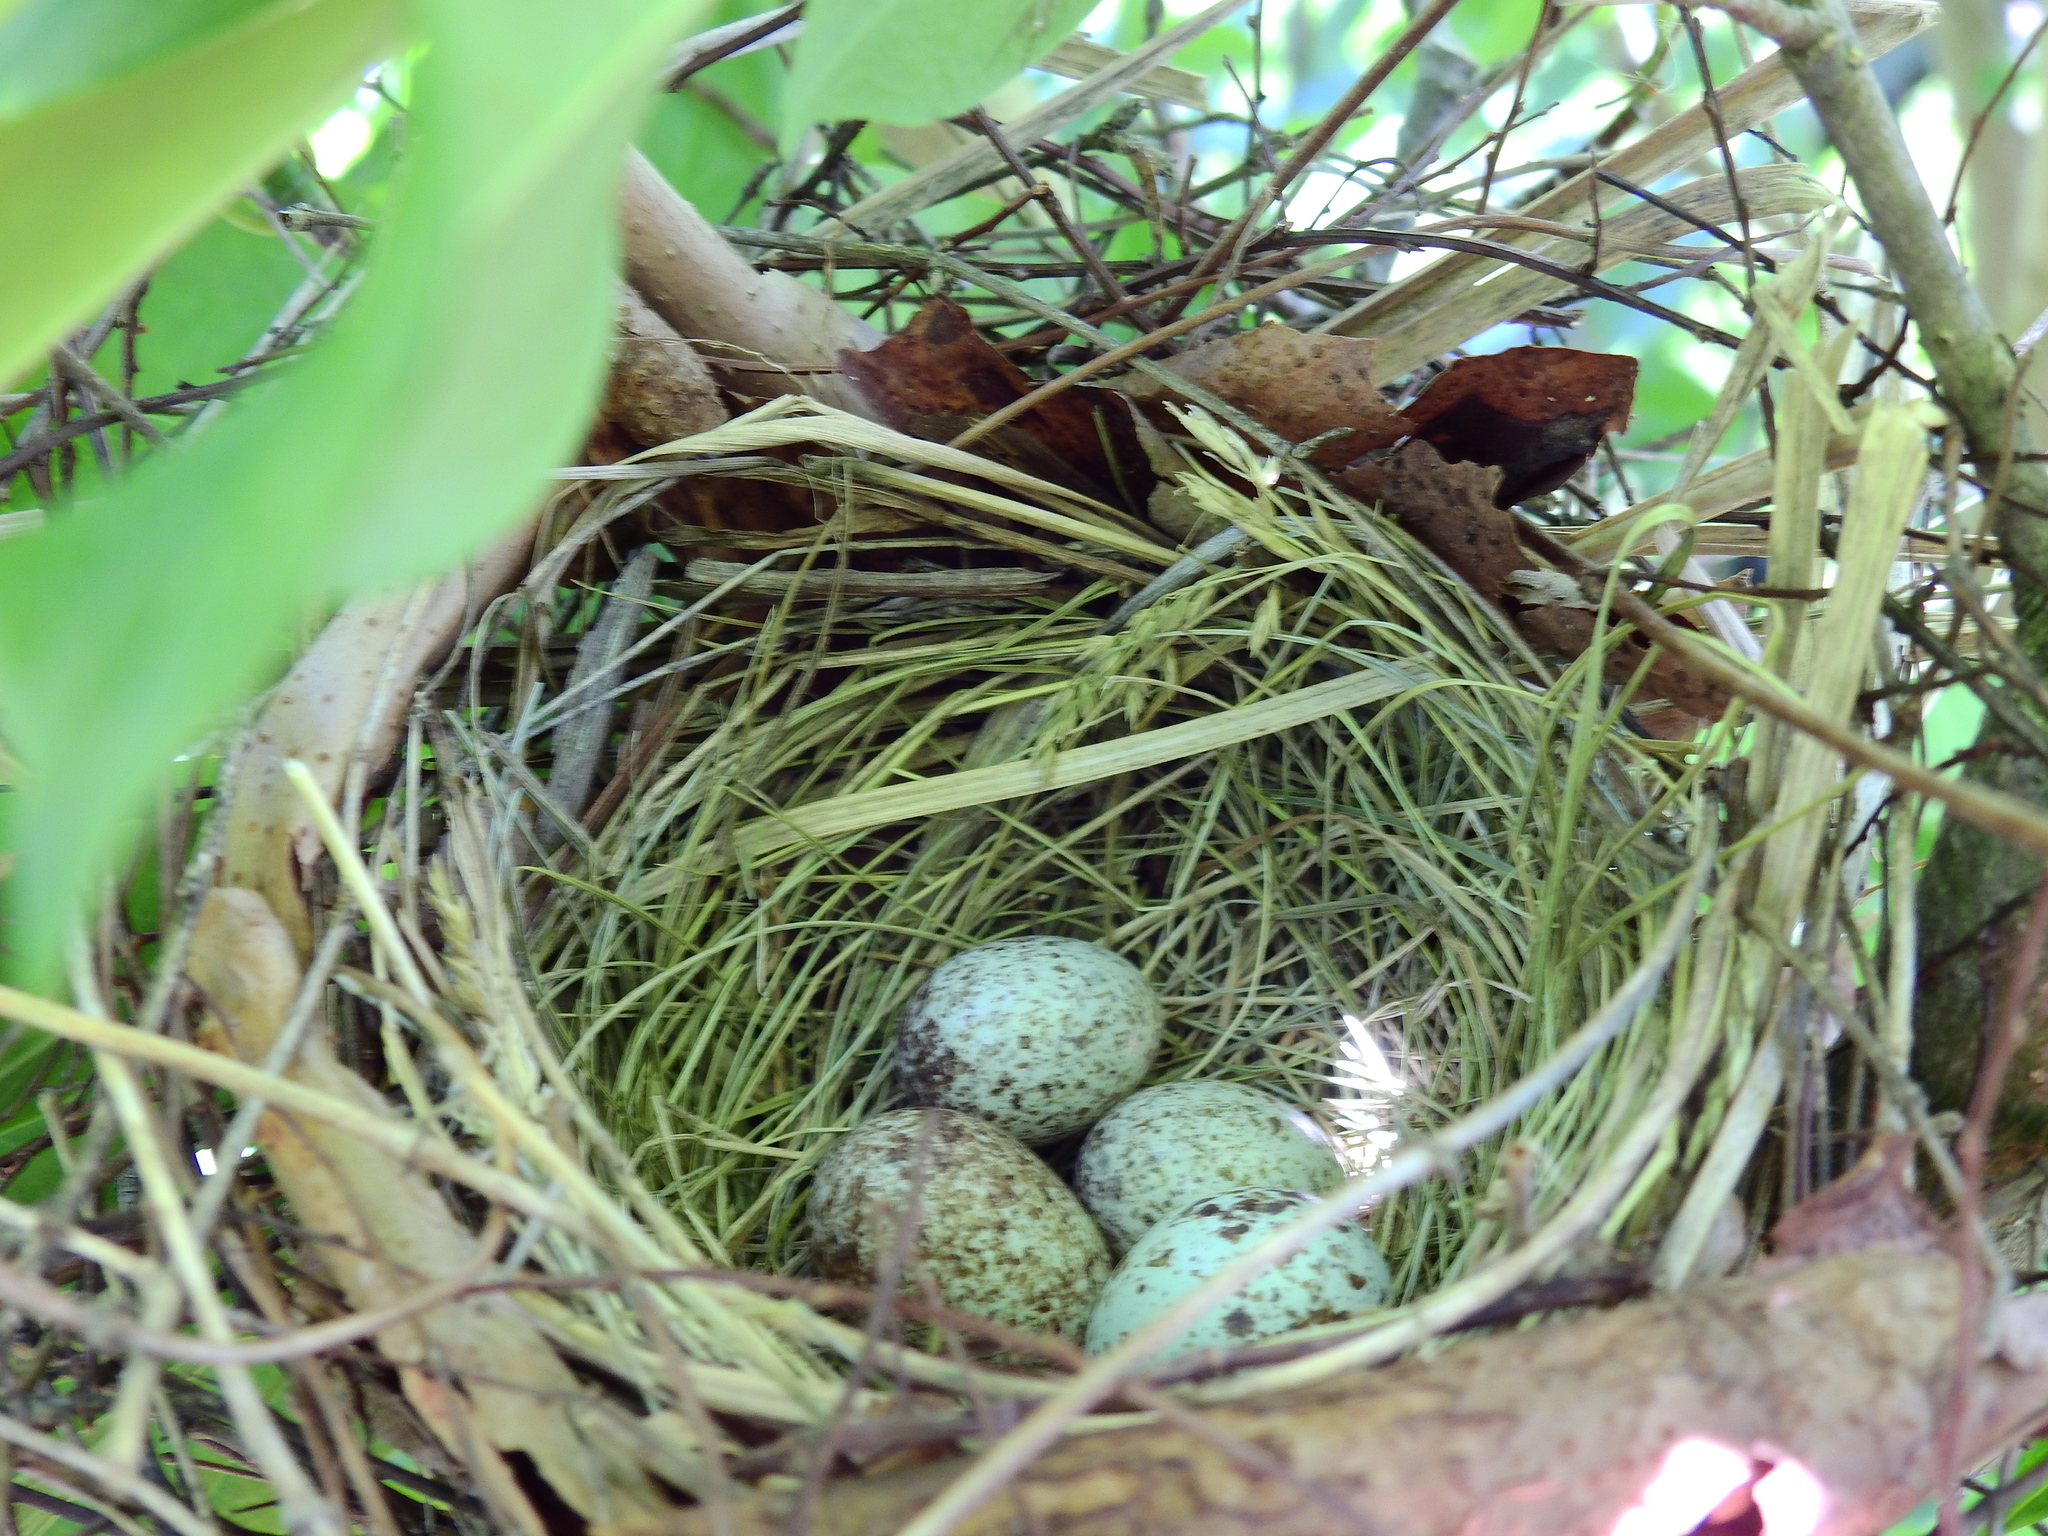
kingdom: Animalia
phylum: Chordata
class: Aves
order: Passeriformes
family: Cardinalidae
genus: Cardinalis
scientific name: Cardinalis cardinalis
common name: Northern cardinal
